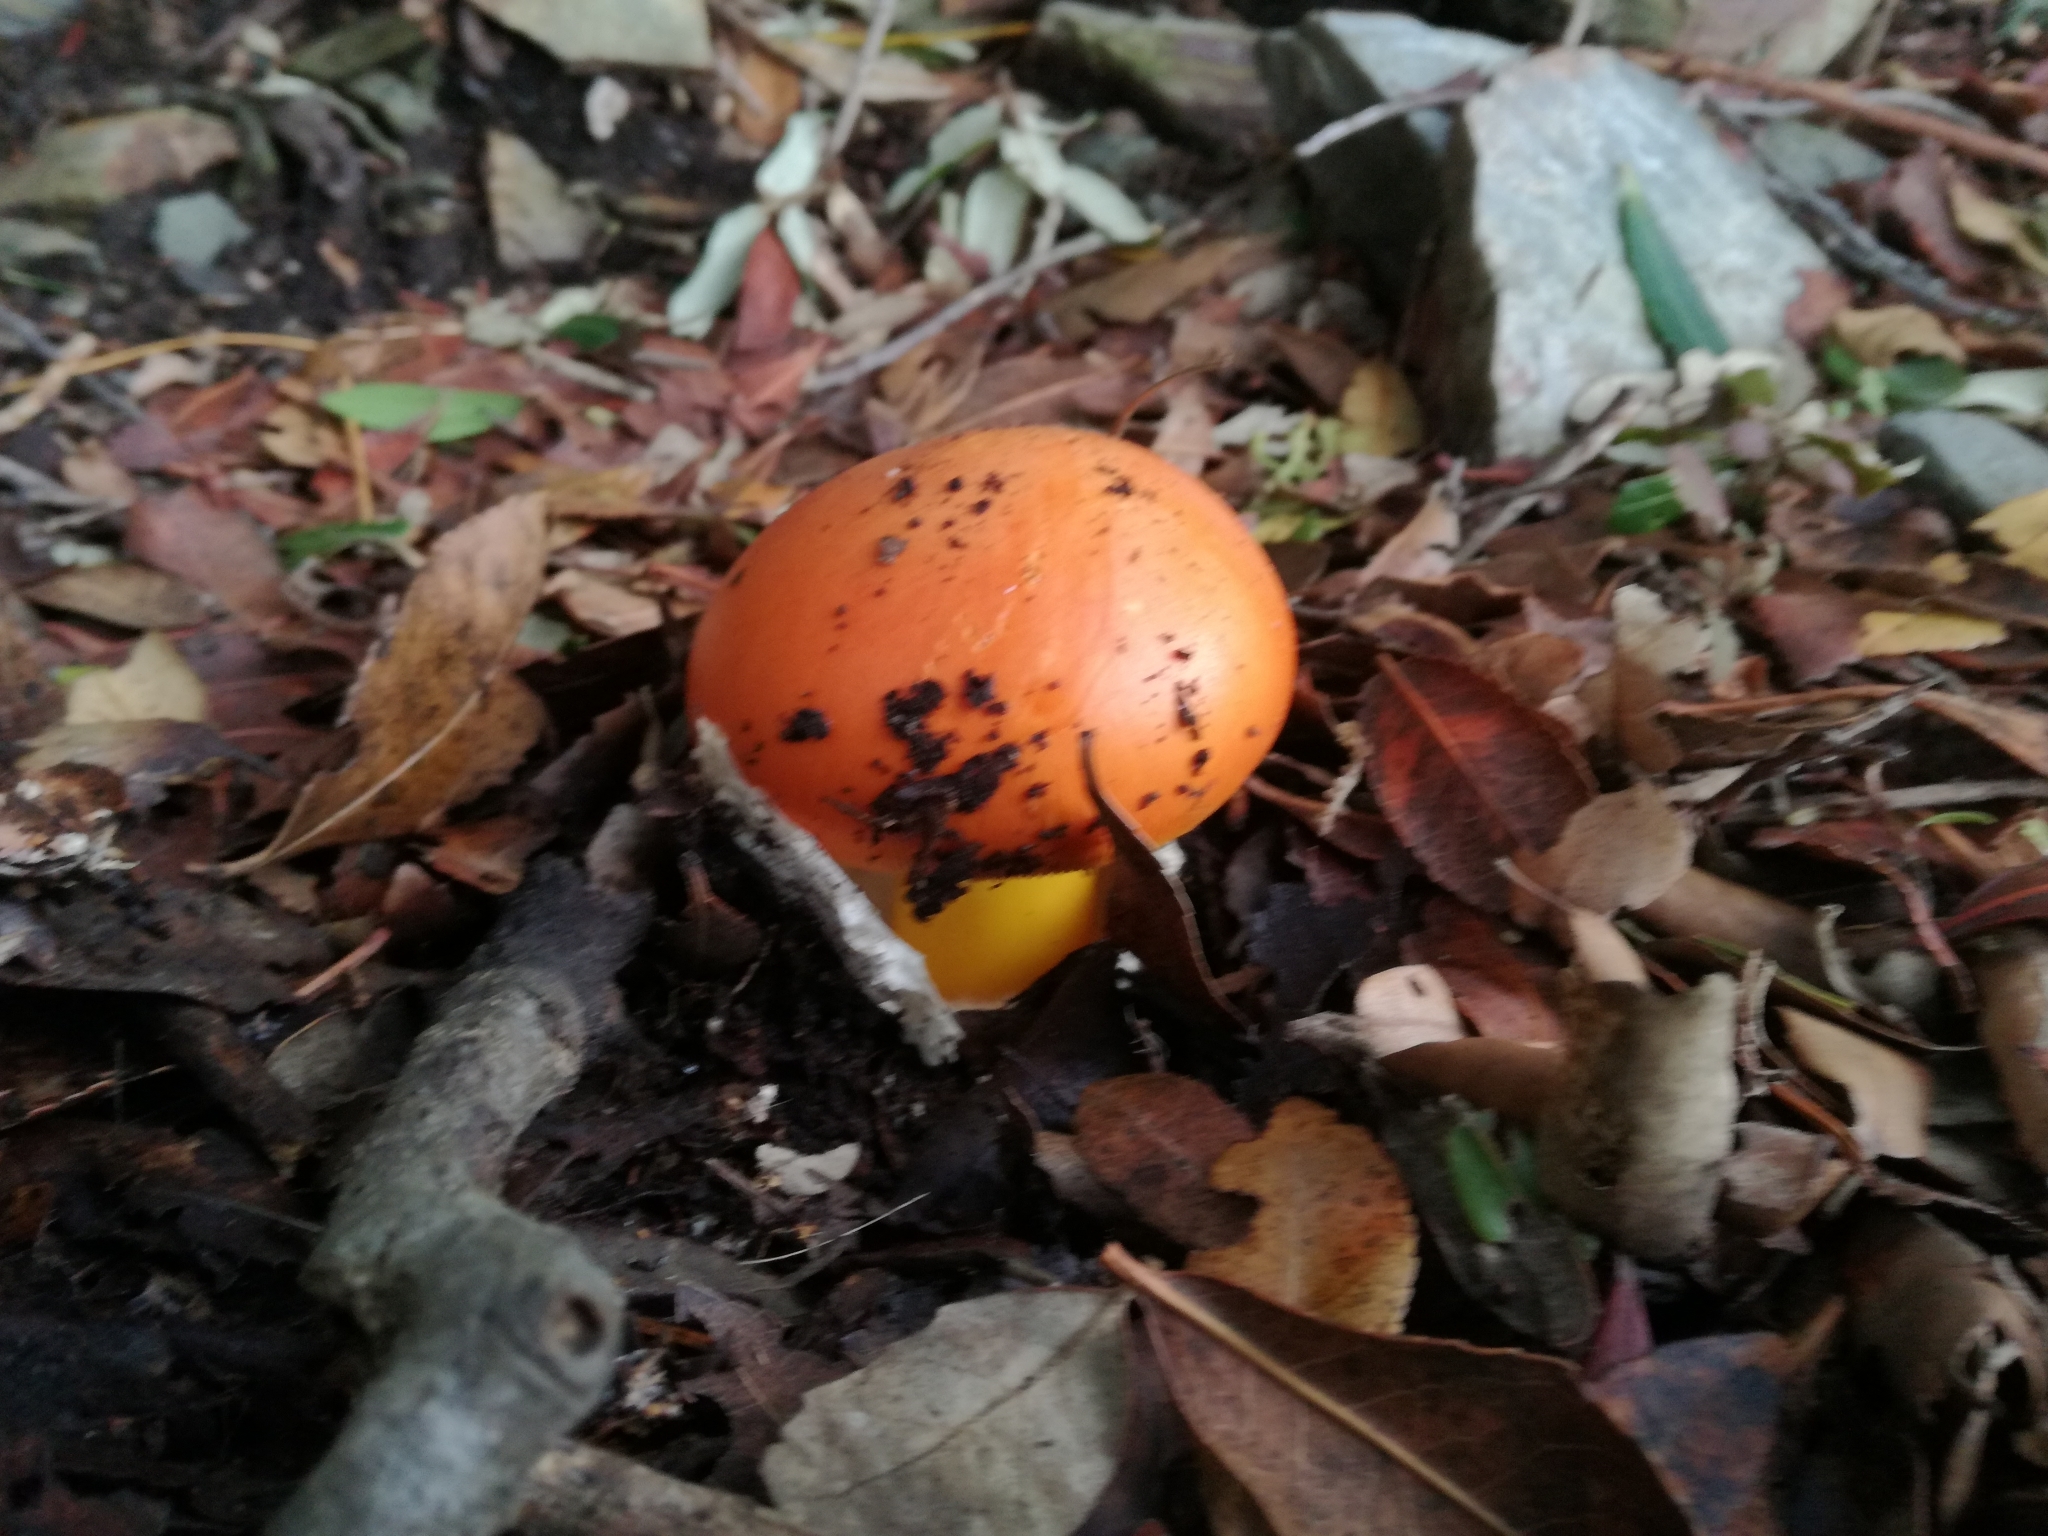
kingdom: Fungi
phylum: Basidiomycota
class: Agaricomycetes
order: Agaricales
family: Amanitaceae
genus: Amanita
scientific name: Amanita caesarea
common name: Caesar's amanita
